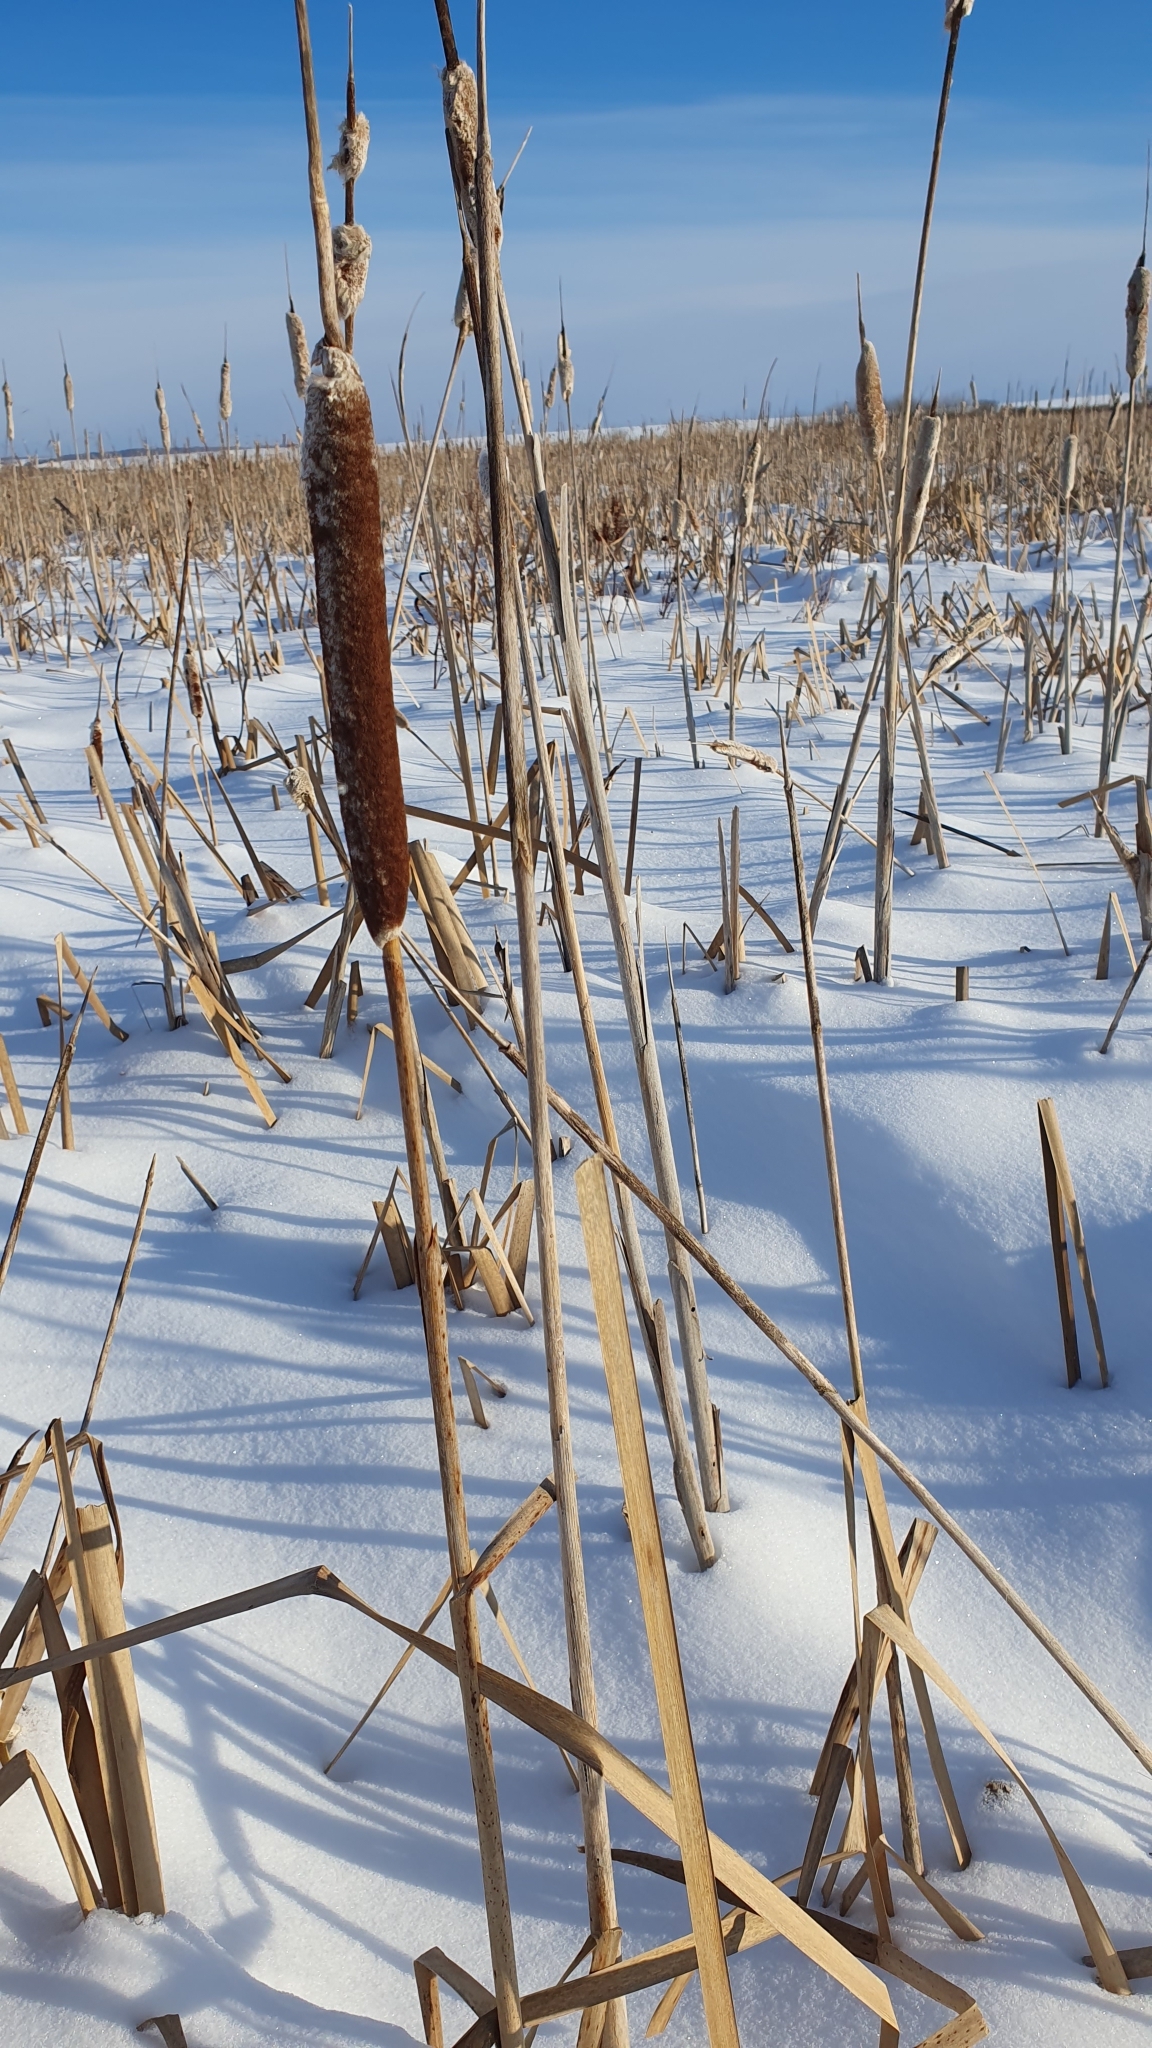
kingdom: Plantae
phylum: Tracheophyta
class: Liliopsida
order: Poales
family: Typhaceae
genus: Typha
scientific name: Typha latifolia
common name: Broadleaf cattail
